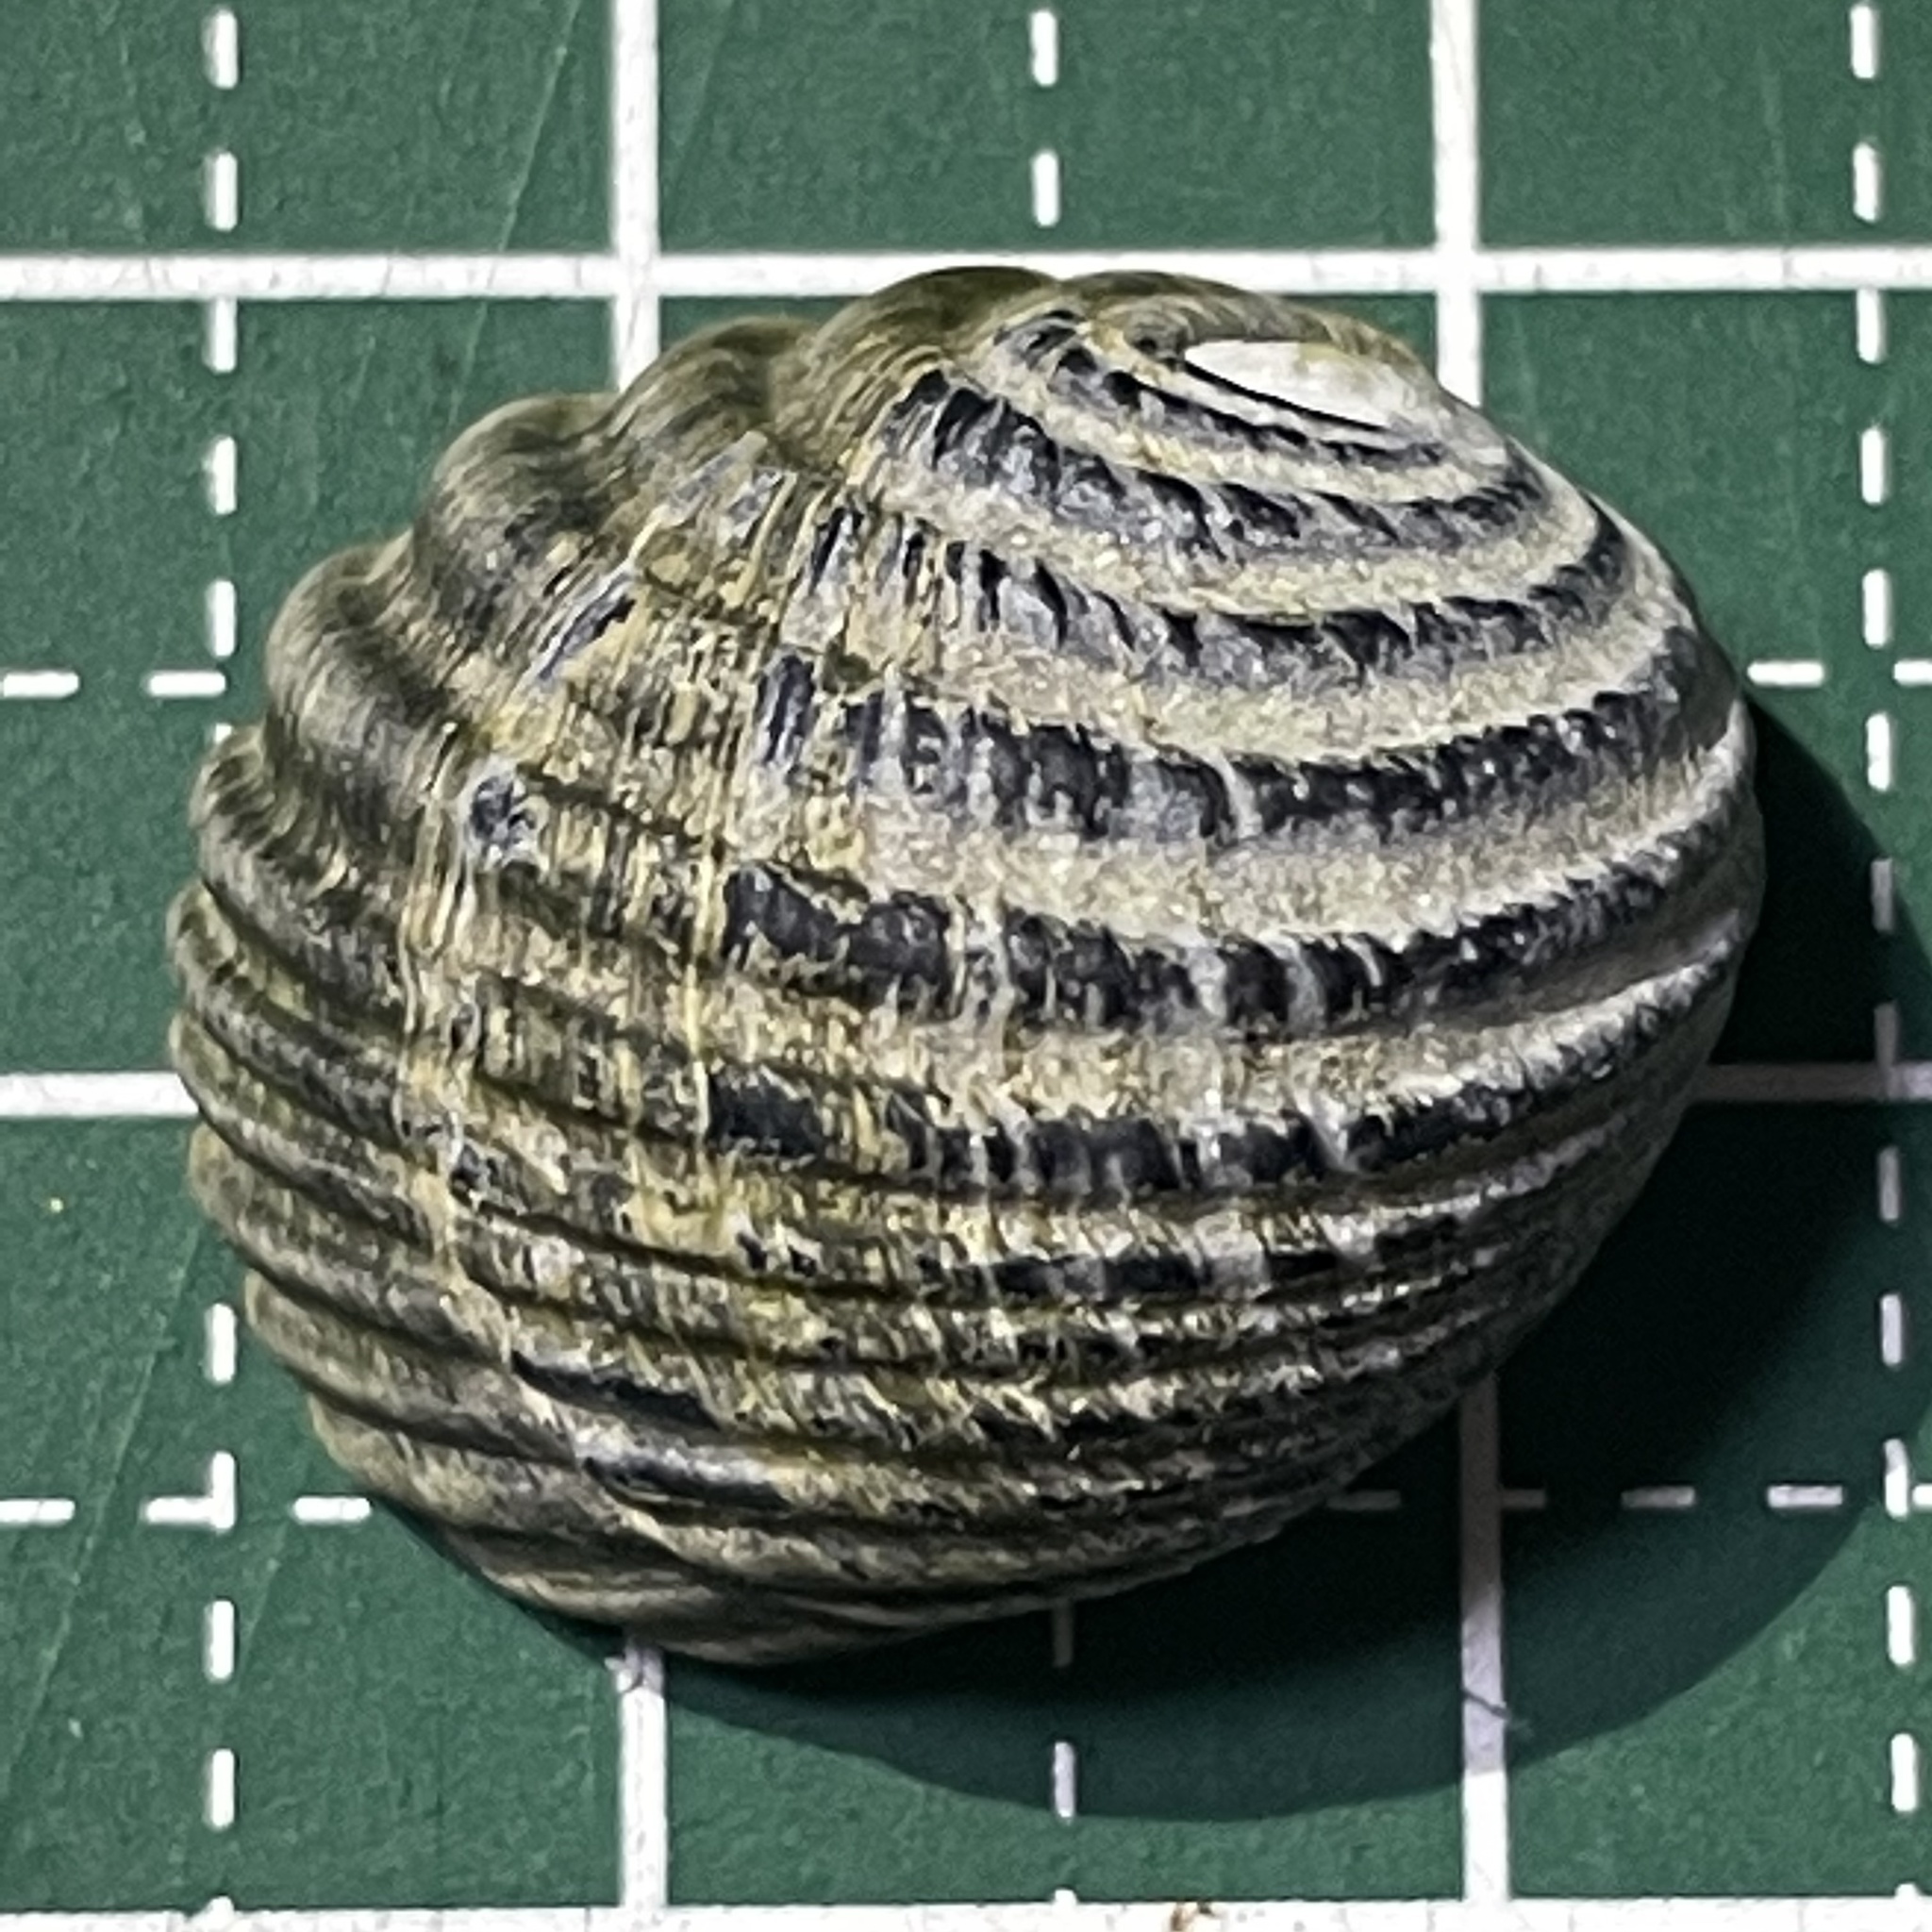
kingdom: Animalia
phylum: Mollusca
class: Gastropoda
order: Cycloneritida
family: Neritidae
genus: Nerita
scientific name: Nerita costata
